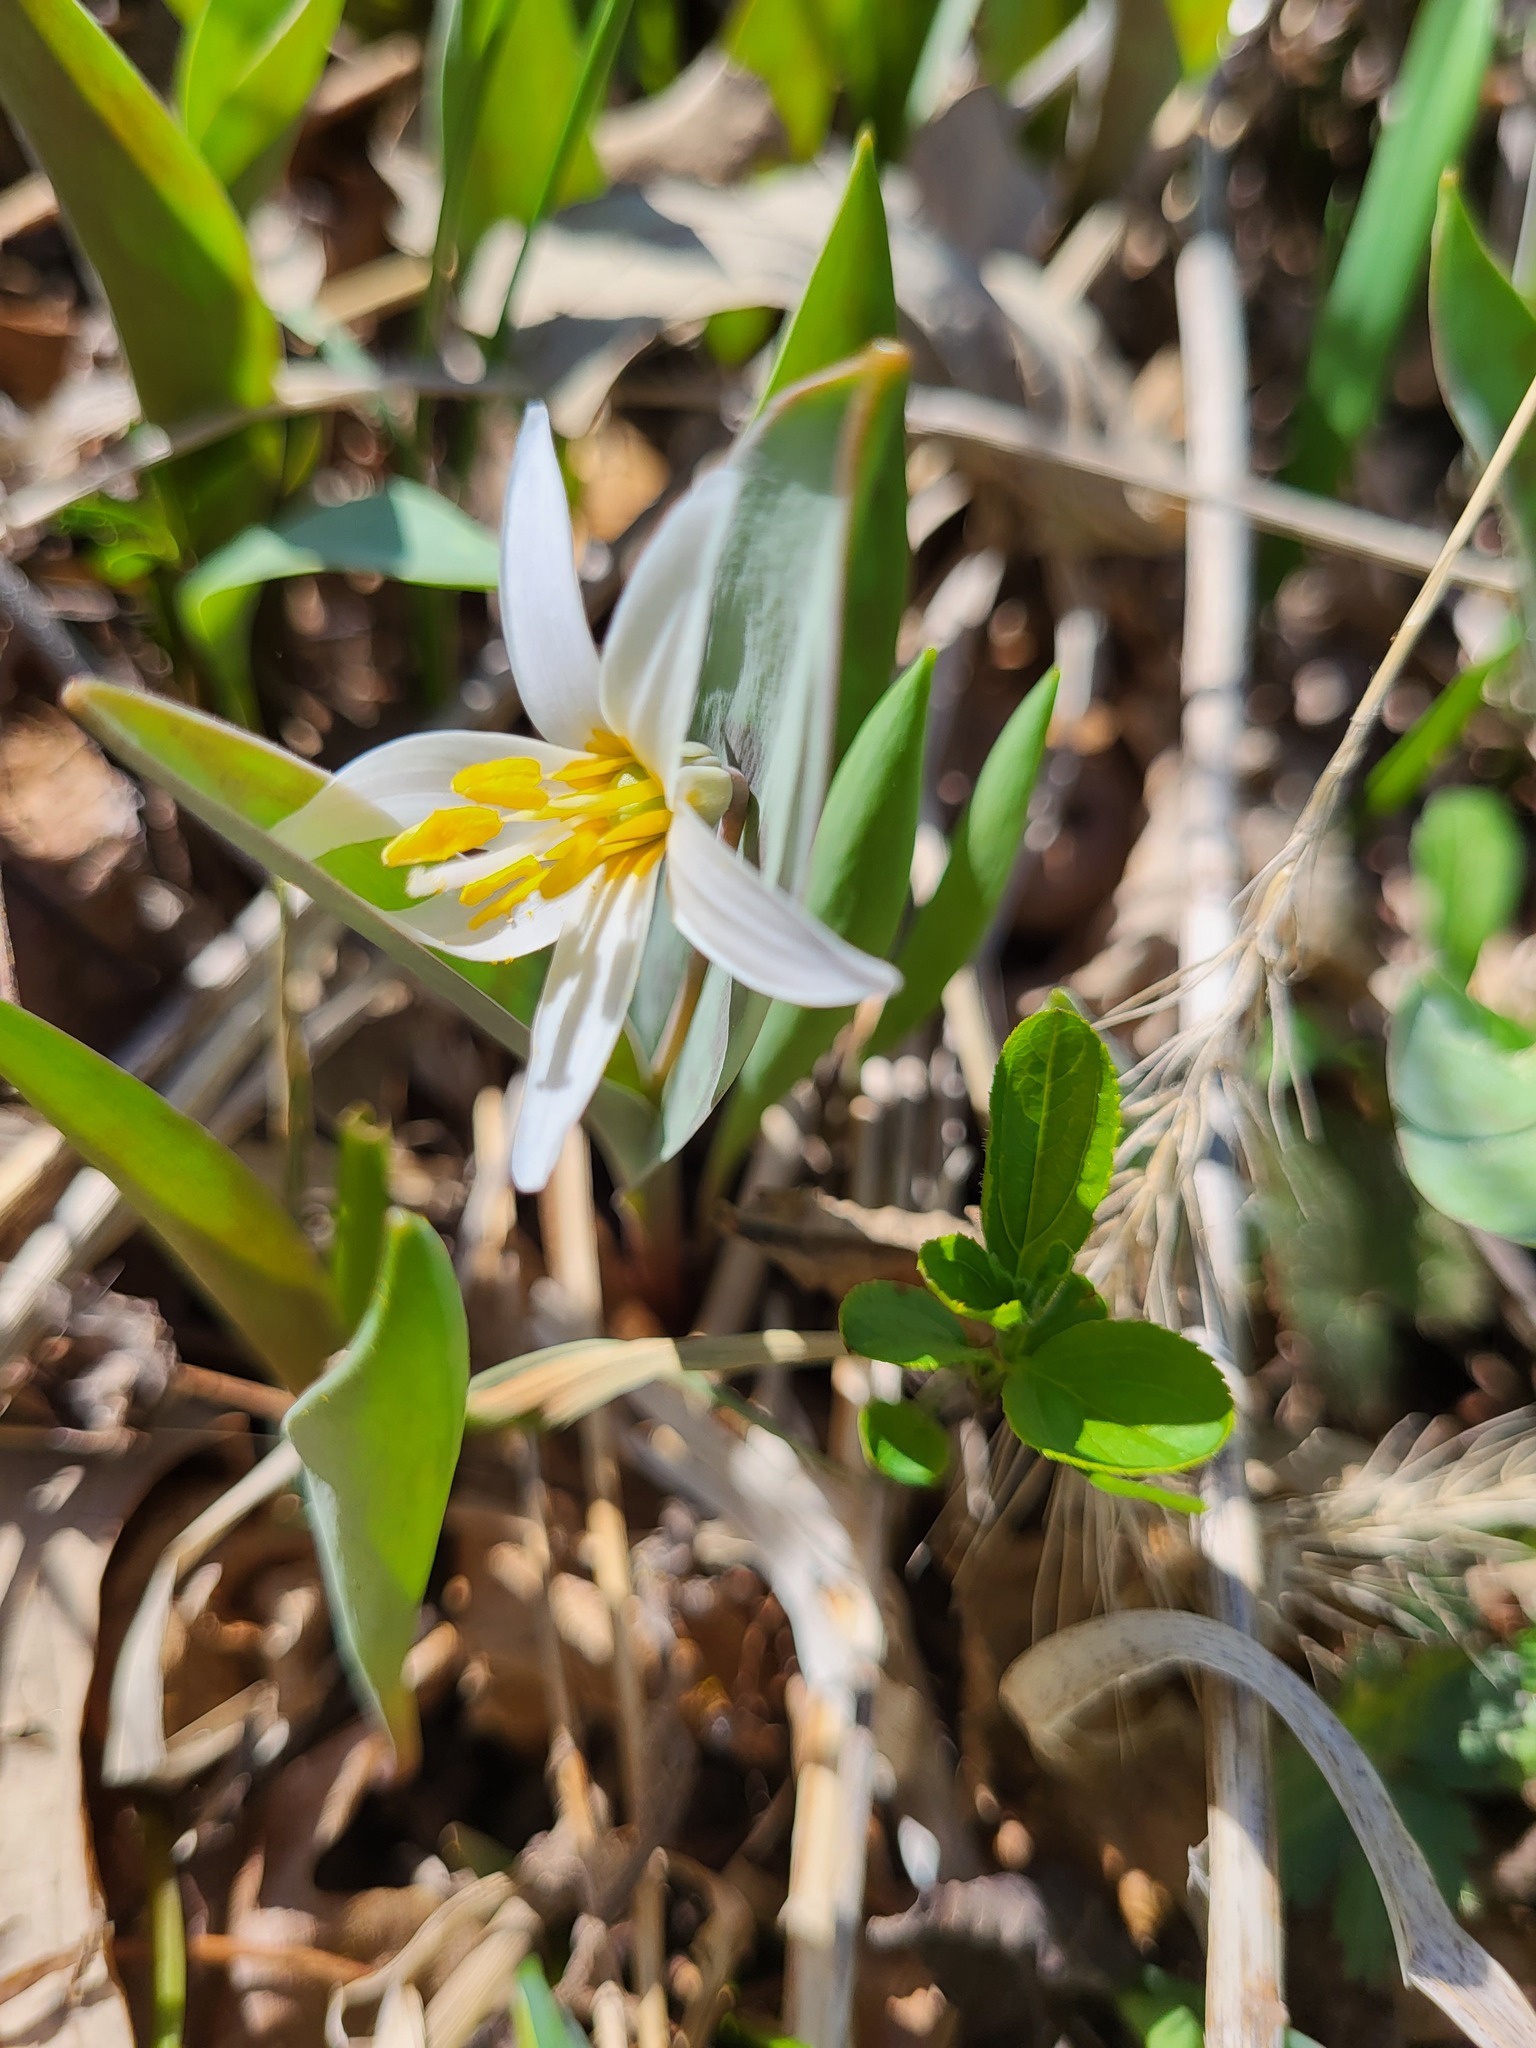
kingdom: Plantae
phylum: Tracheophyta
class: Liliopsida
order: Liliales
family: Liliaceae
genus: Erythronium
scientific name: Erythronium albidum
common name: White trout-lily
